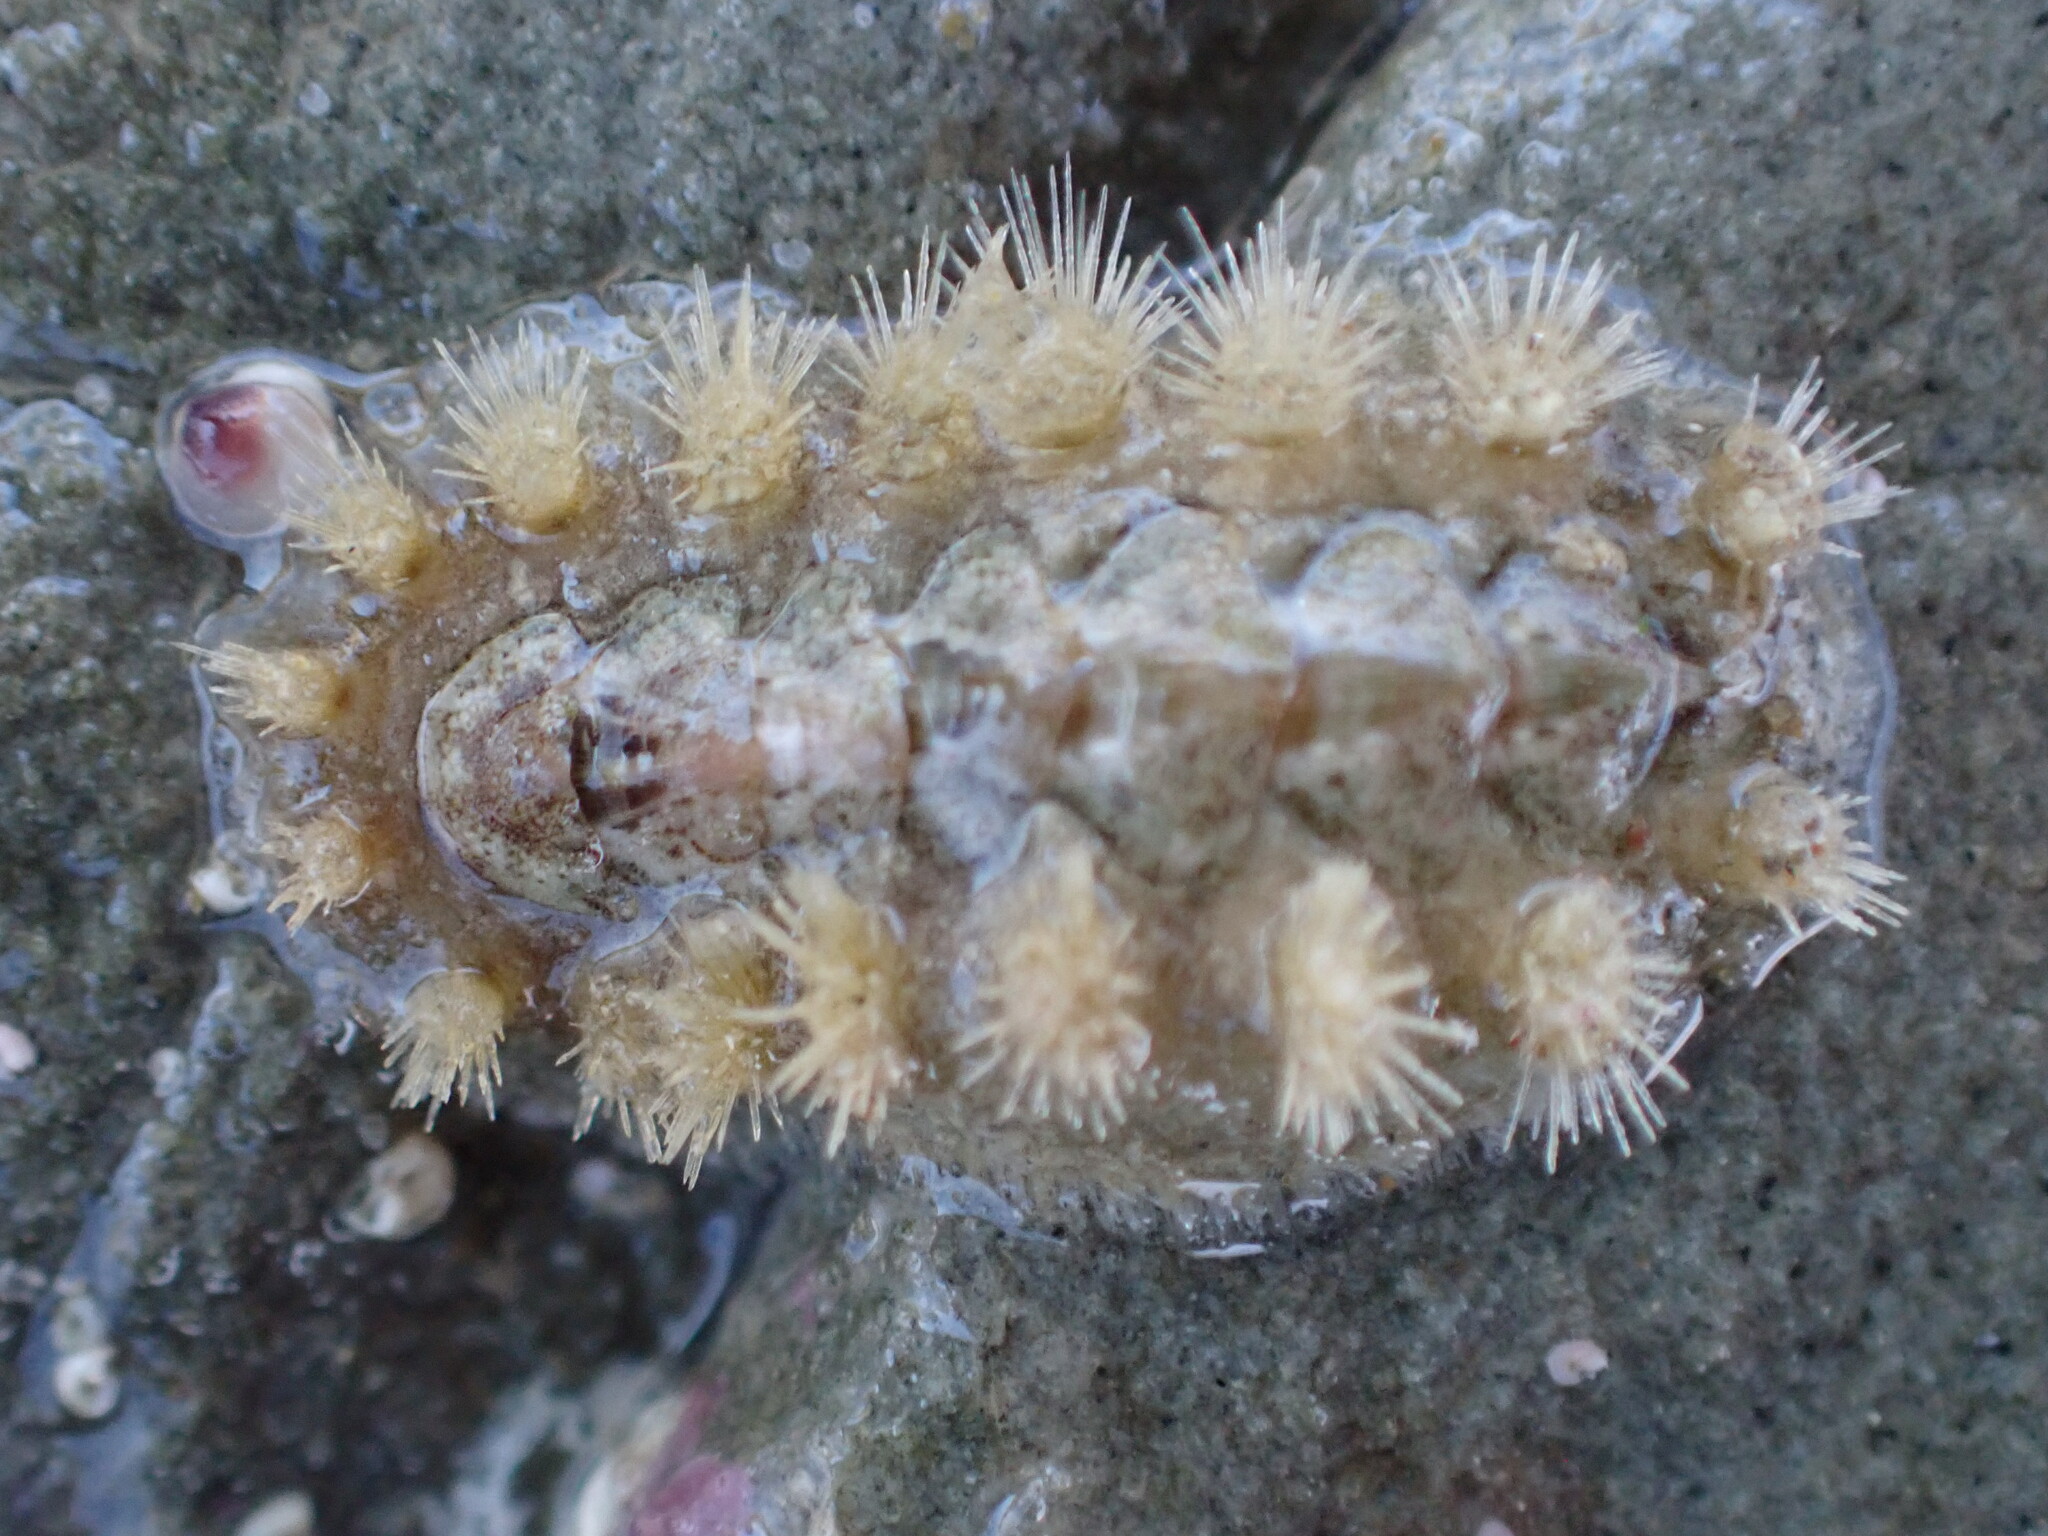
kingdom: Animalia
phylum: Mollusca
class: Polyplacophora
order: Chitonida
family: Acanthochitonidae
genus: Acanthochitona
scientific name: Acanthochitona zelandica
